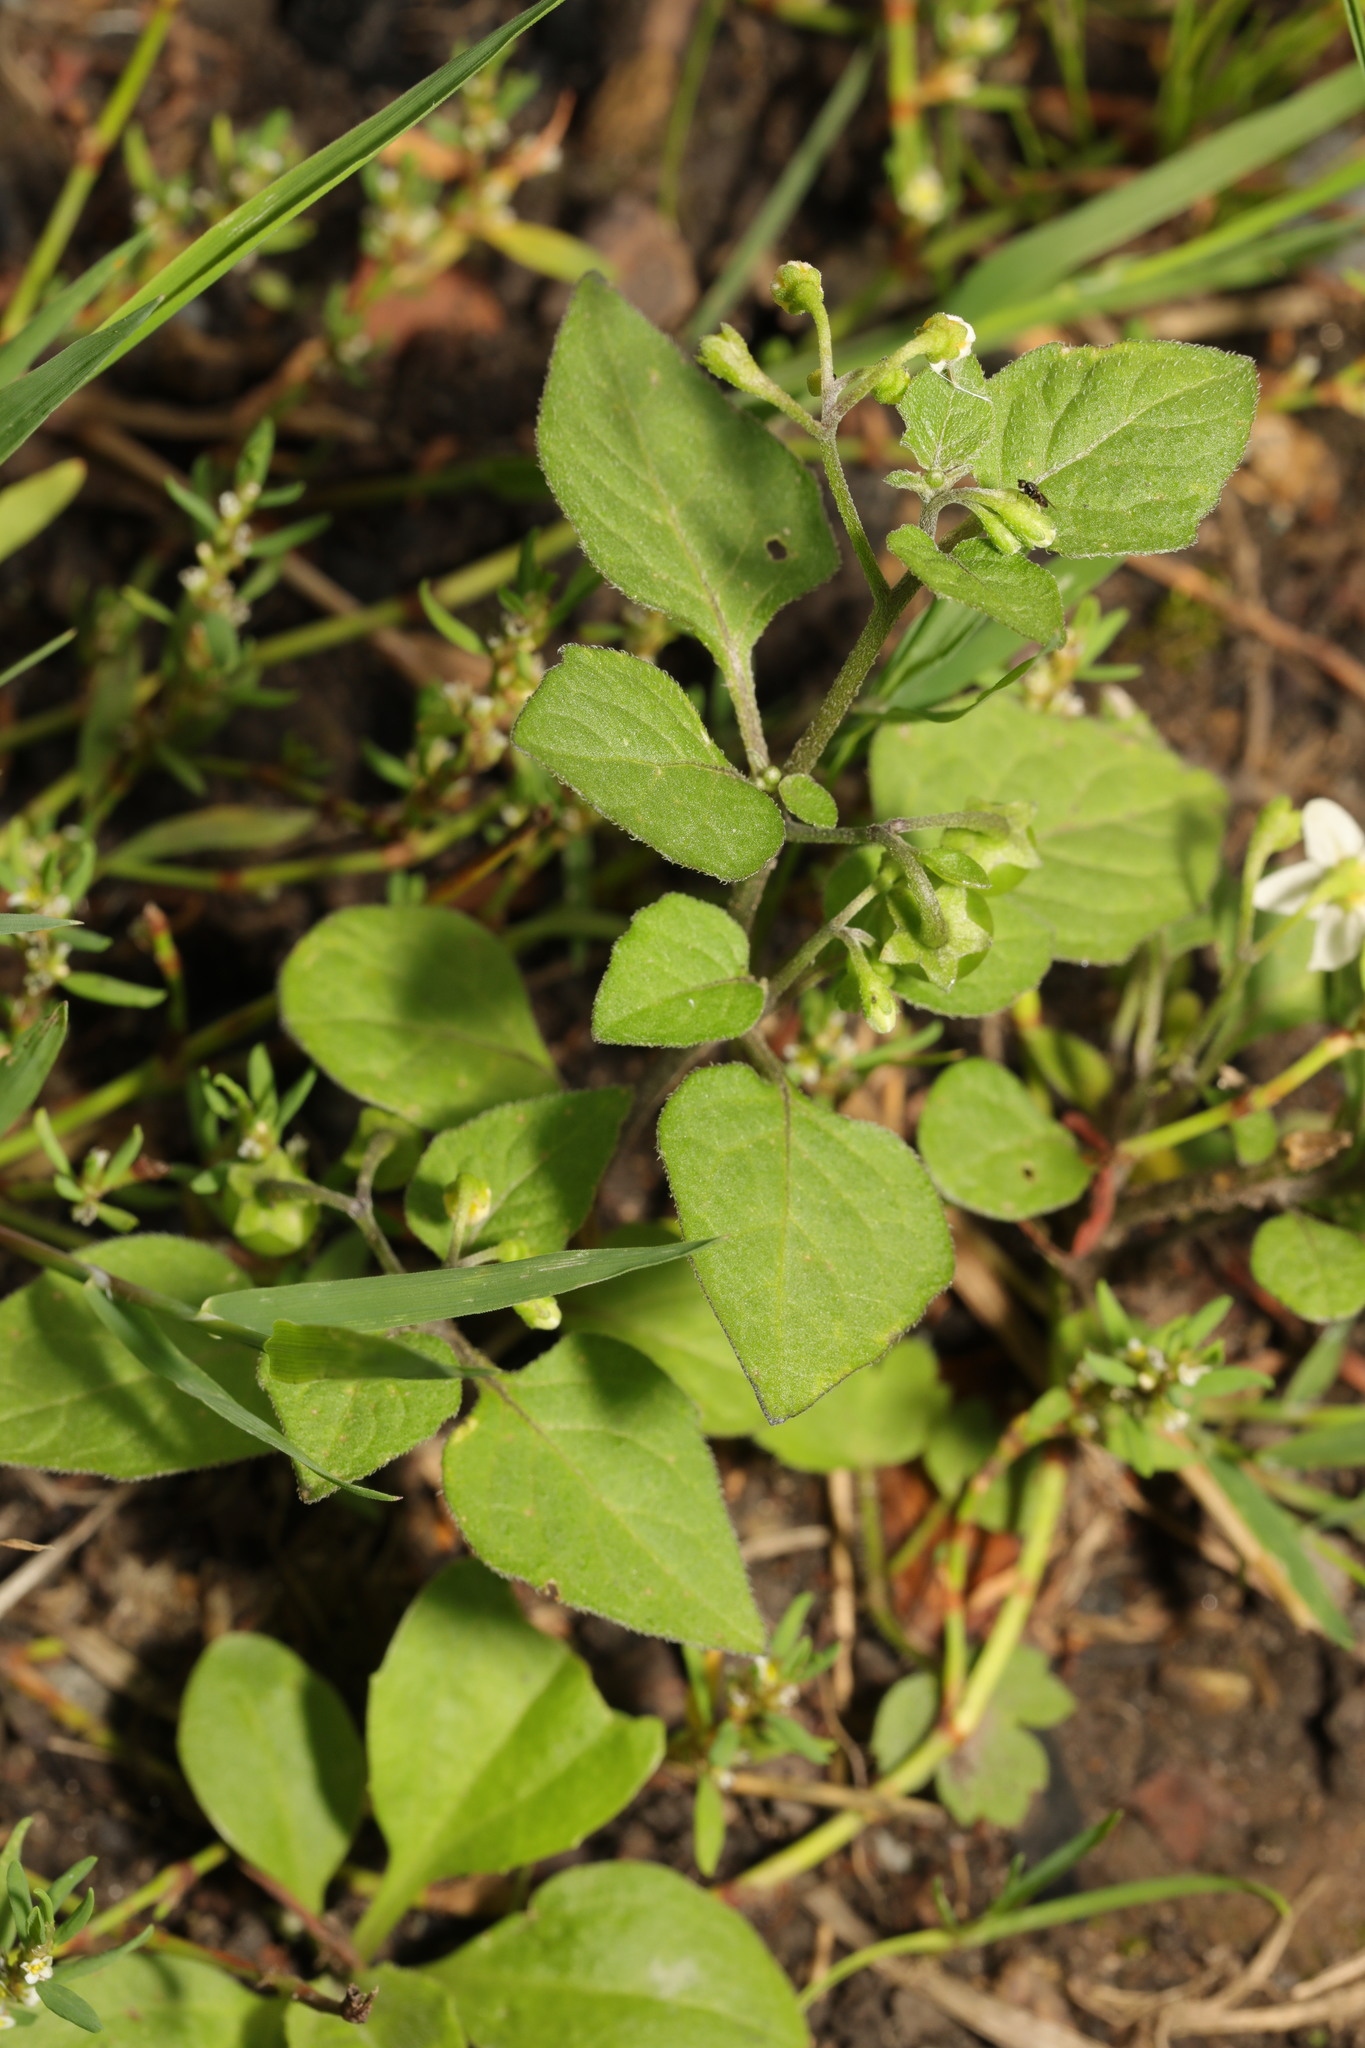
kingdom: Plantae
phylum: Tracheophyta
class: Magnoliopsida
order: Solanales
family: Solanaceae
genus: Solanum
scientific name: Solanum nigrum
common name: Black nightshade
